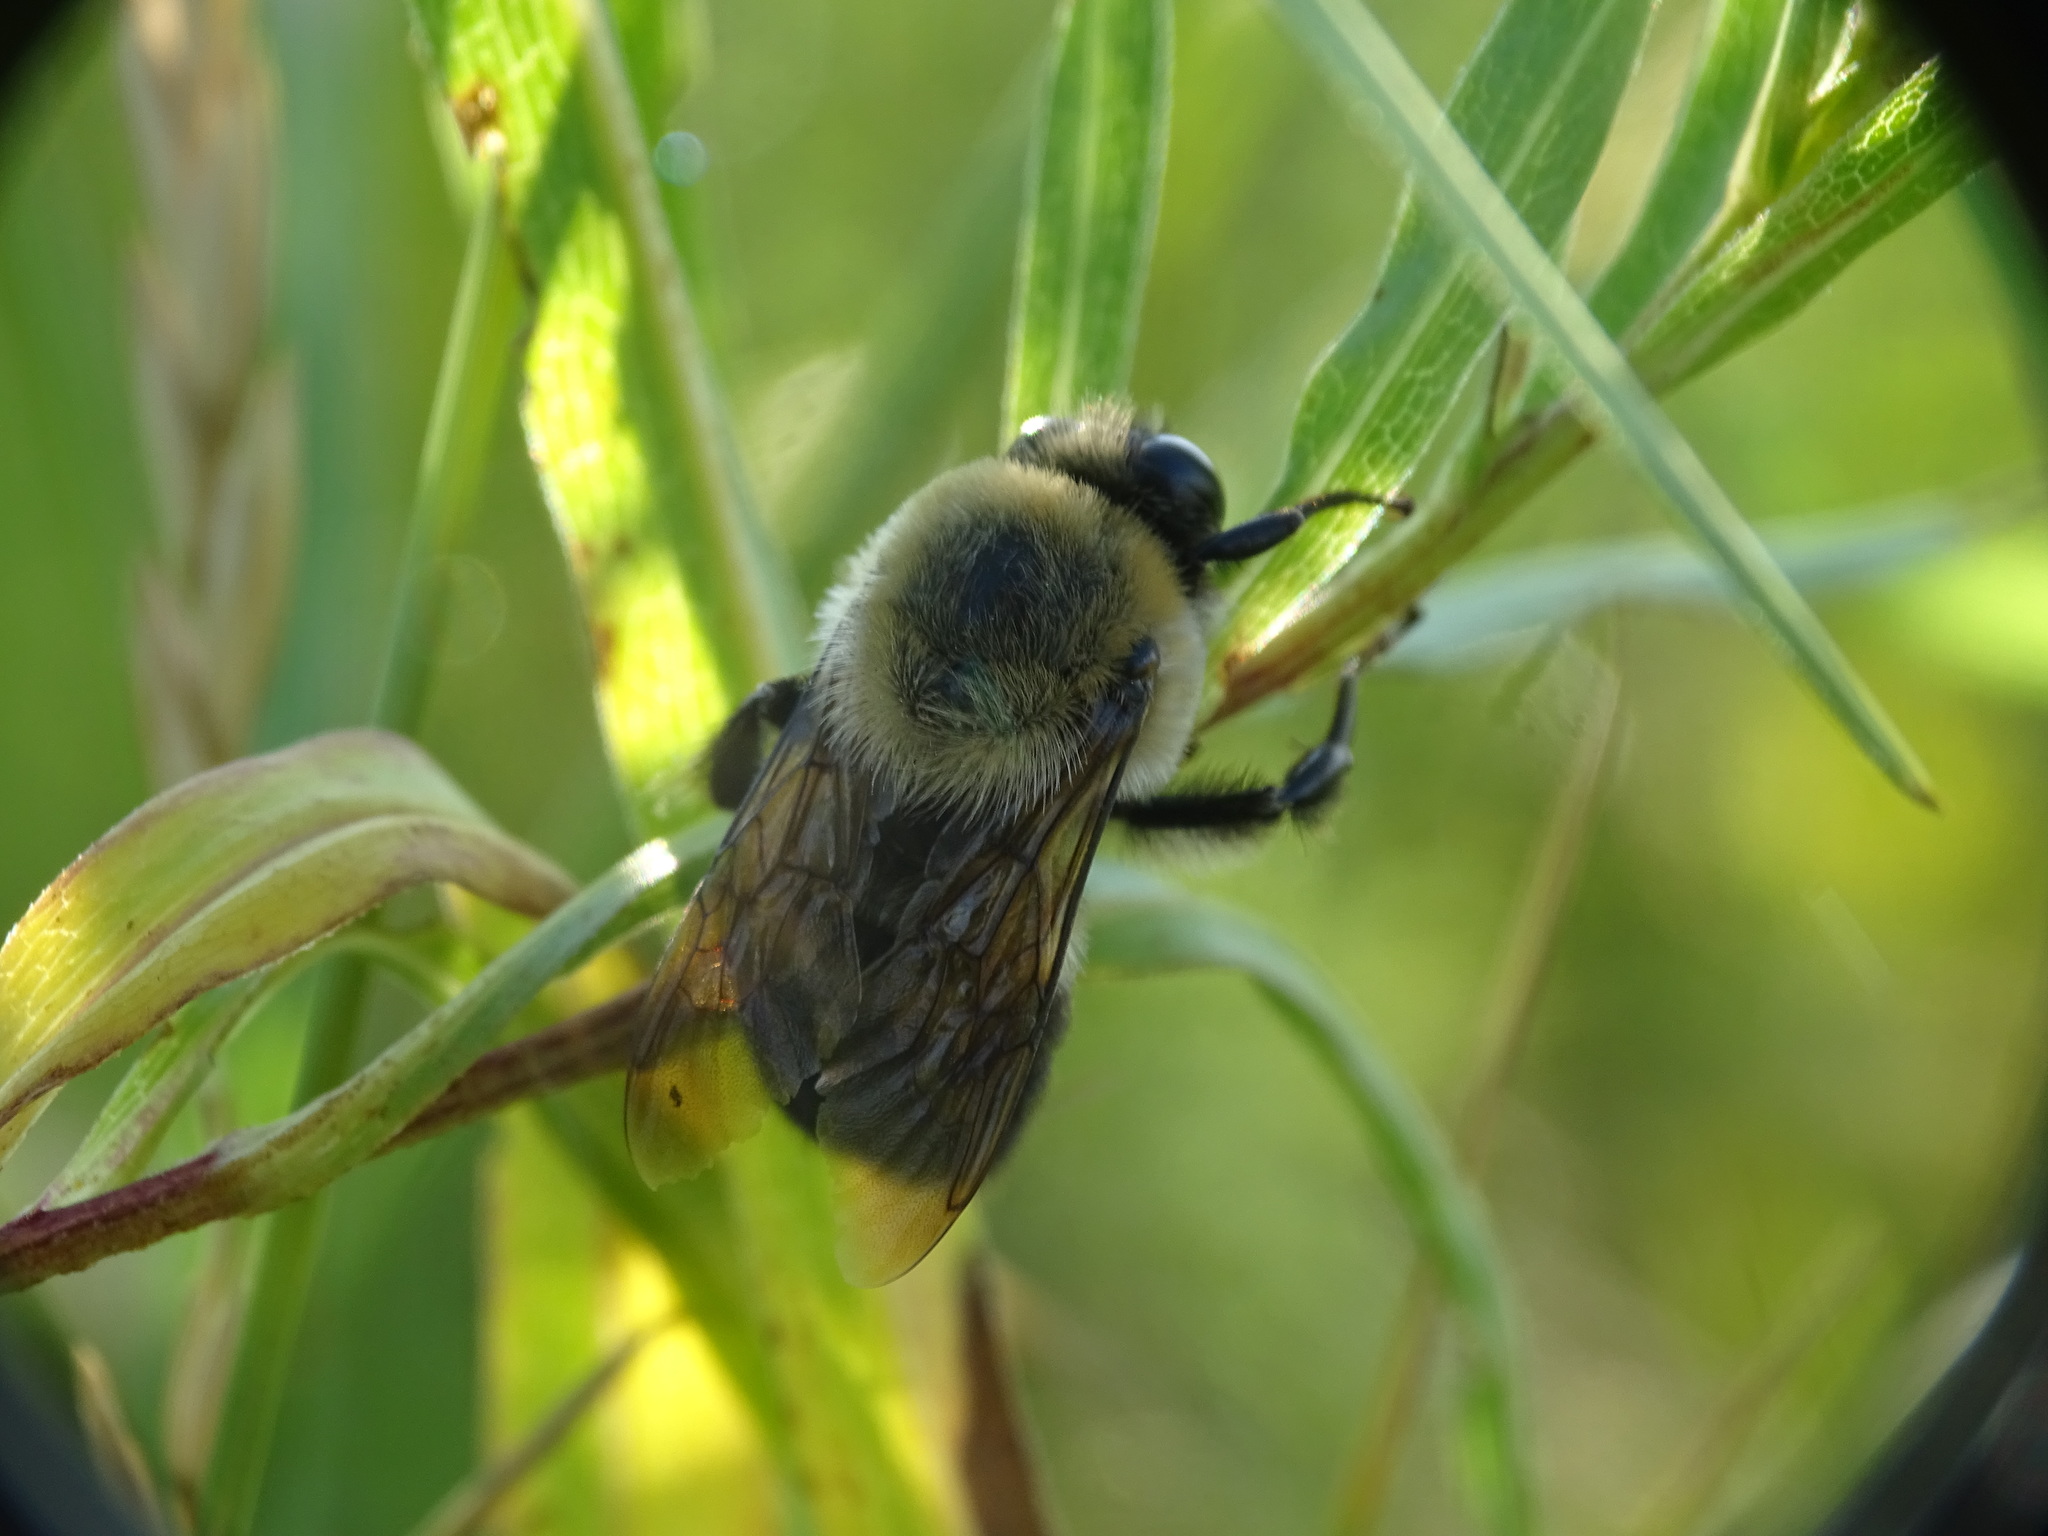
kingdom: Animalia
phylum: Arthropoda
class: Insecta
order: Hymenoptera
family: Apidae
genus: Bombus
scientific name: Bombus griseocollis
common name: Brown-belted bumble bee
